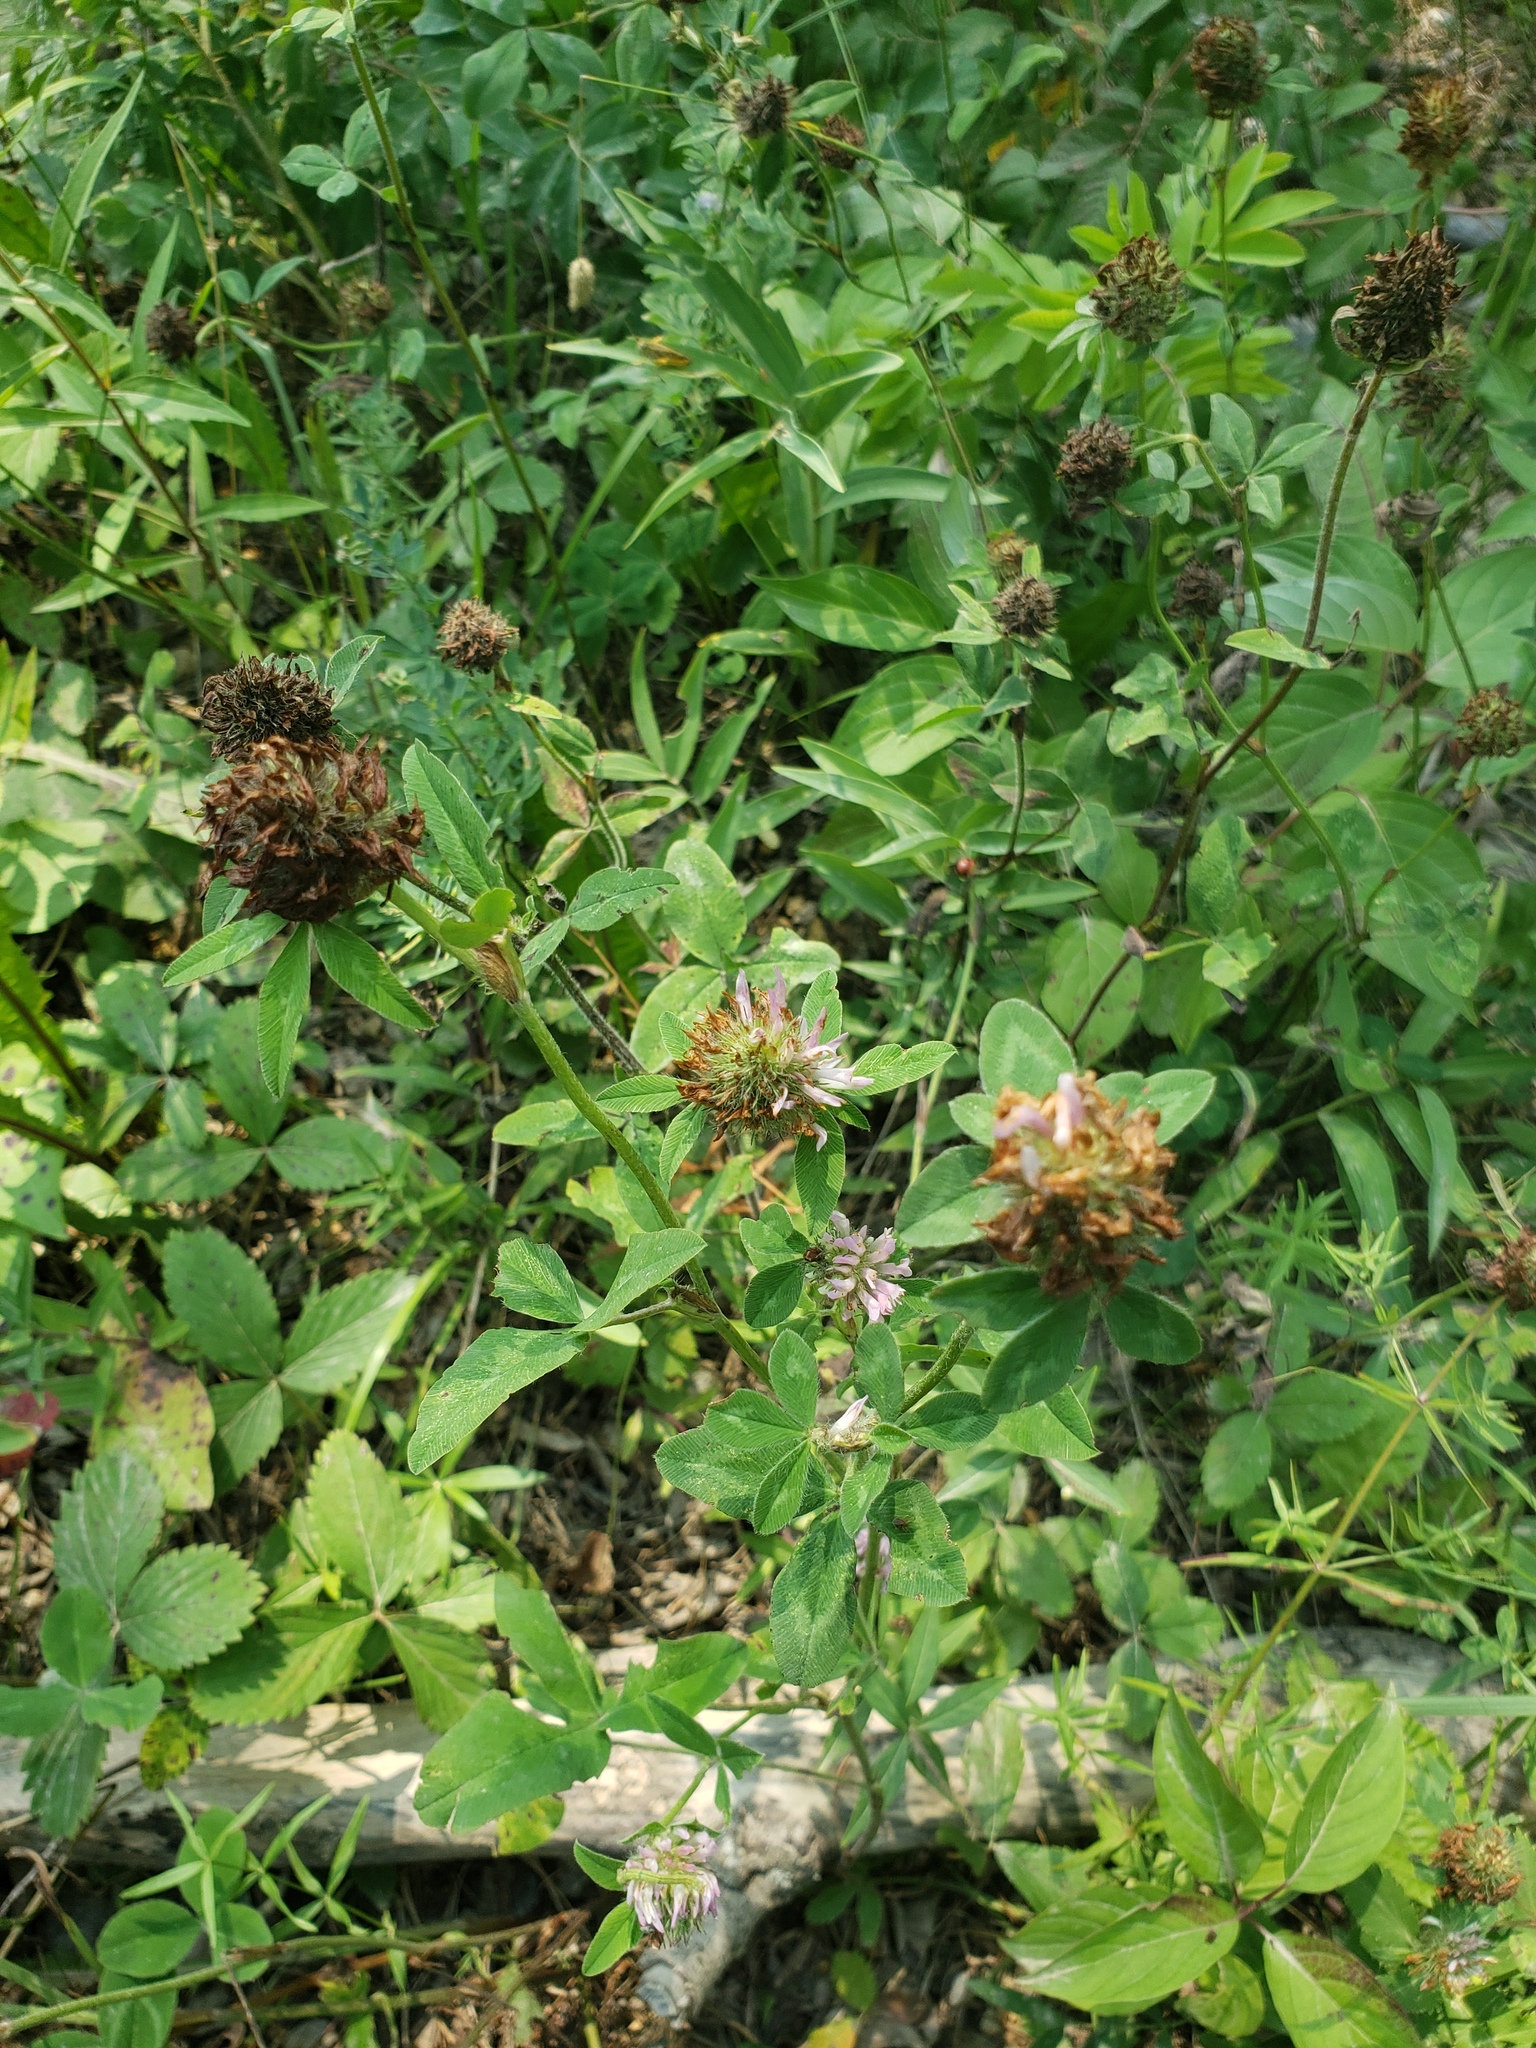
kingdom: Plantae
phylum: Tracheophyta
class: Magnoliopsida
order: Fabales
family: Fabaceae
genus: Trifolium
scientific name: Trifolium pratense
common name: Red clover
